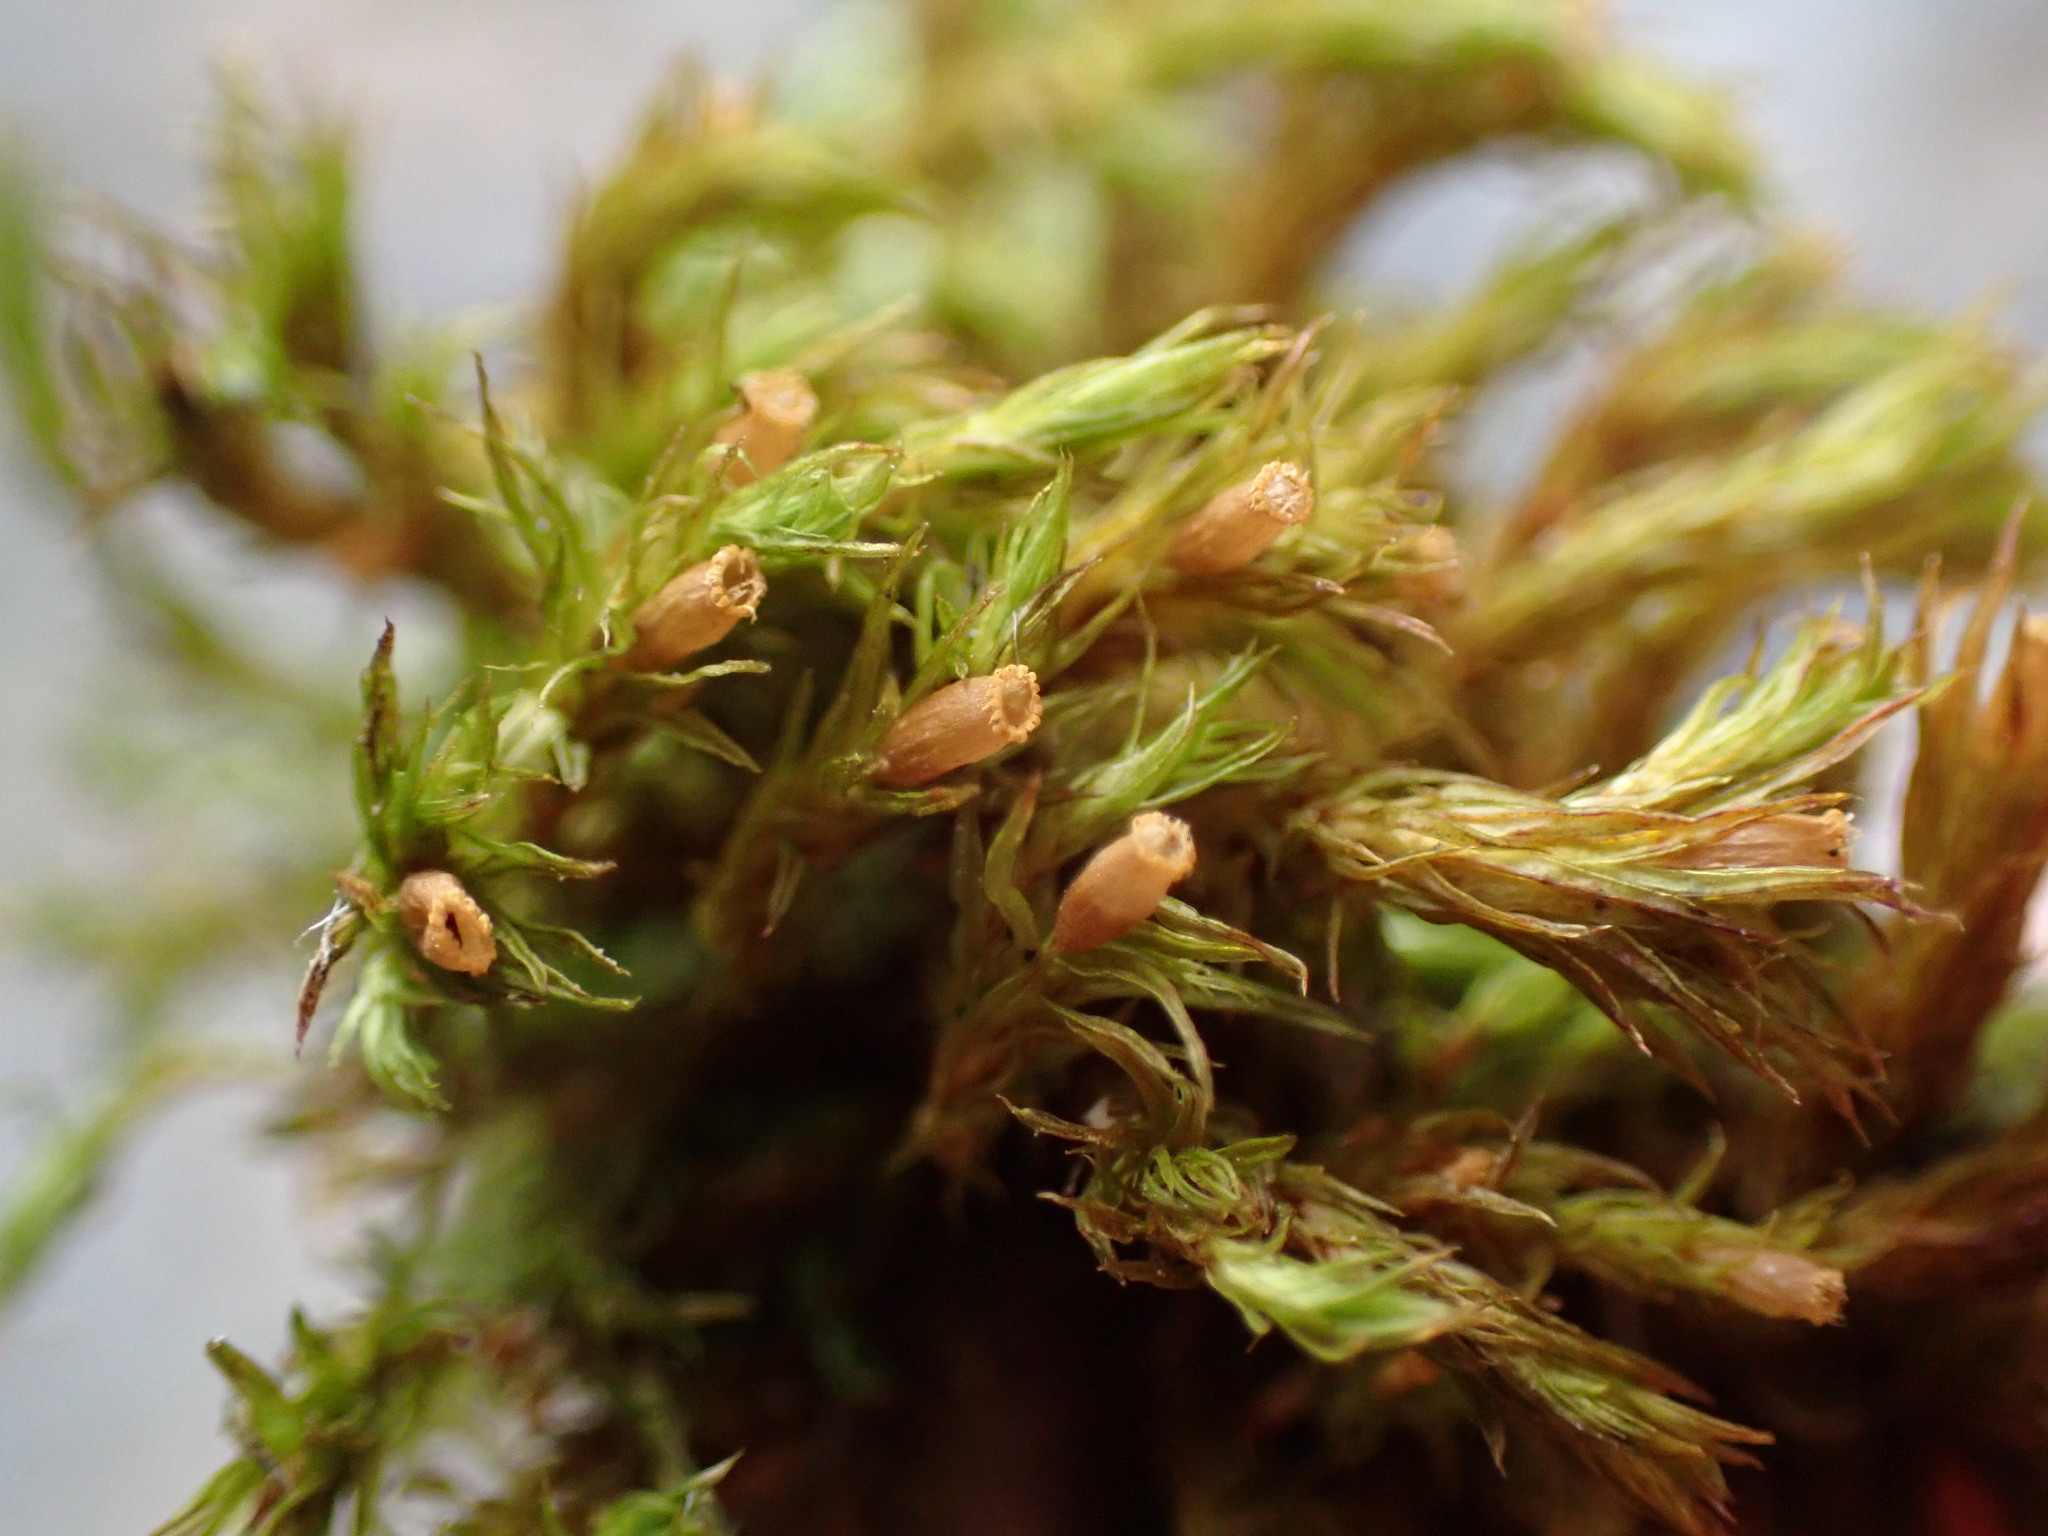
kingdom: Plantae
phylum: Bryophyta
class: Bryopsida
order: Orthotrichales
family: Orthotrichaceae
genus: Lewinskya
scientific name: Lewinskya striata
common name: Shaw's bristle-moss
